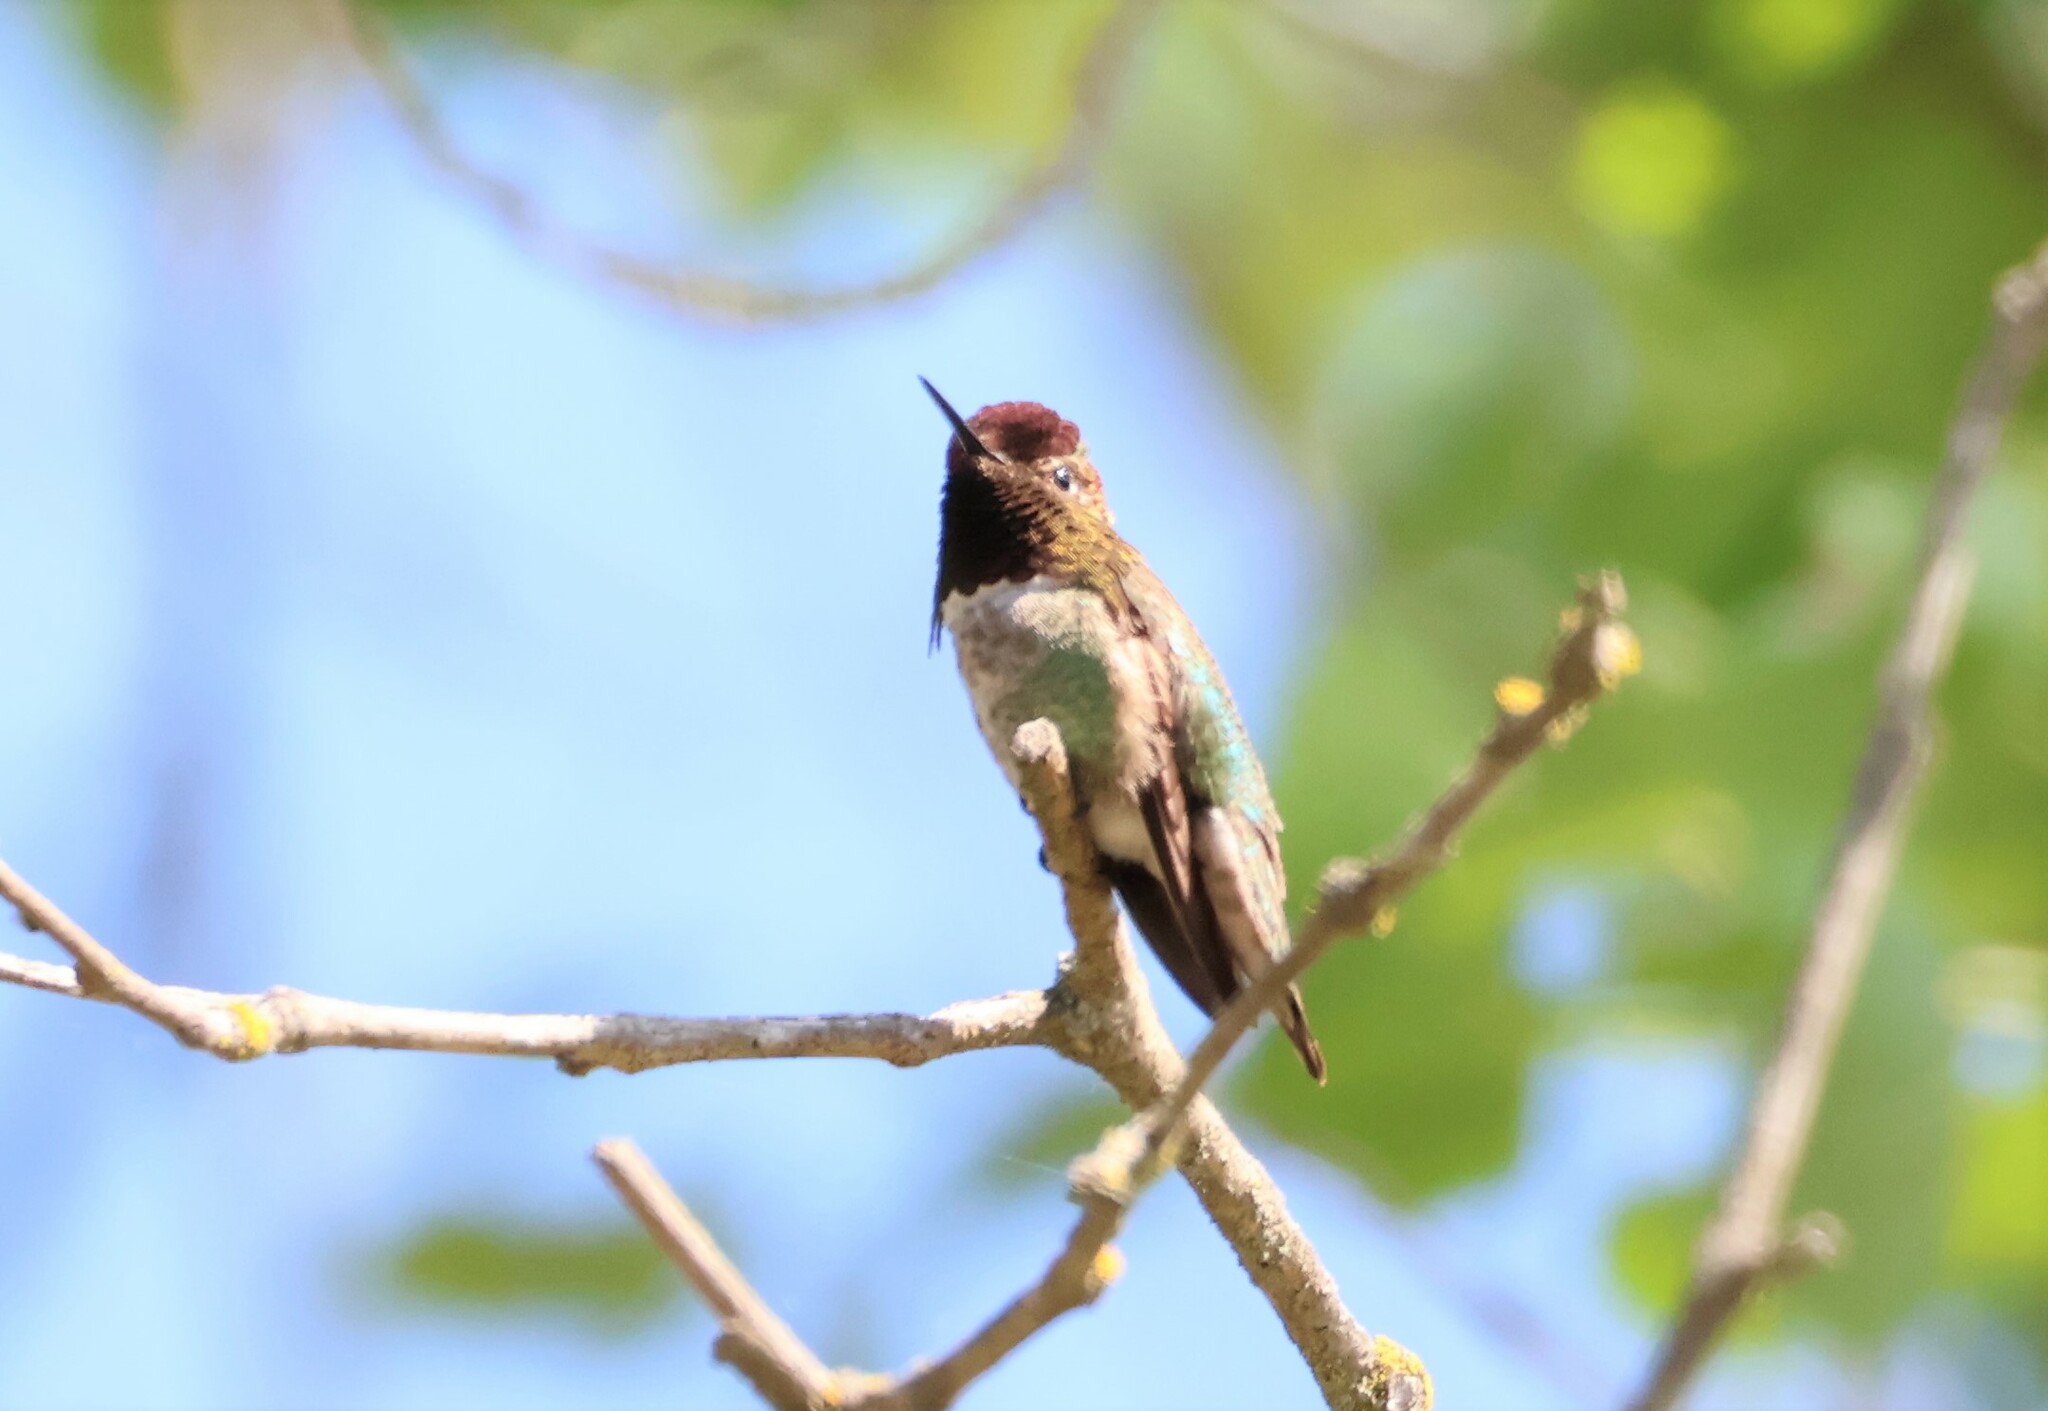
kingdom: Animalia
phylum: Chordata
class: Aves
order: Apodiformes
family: Trochilidae
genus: Calypte
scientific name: Calypte anna
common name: Anna's hummingbird
